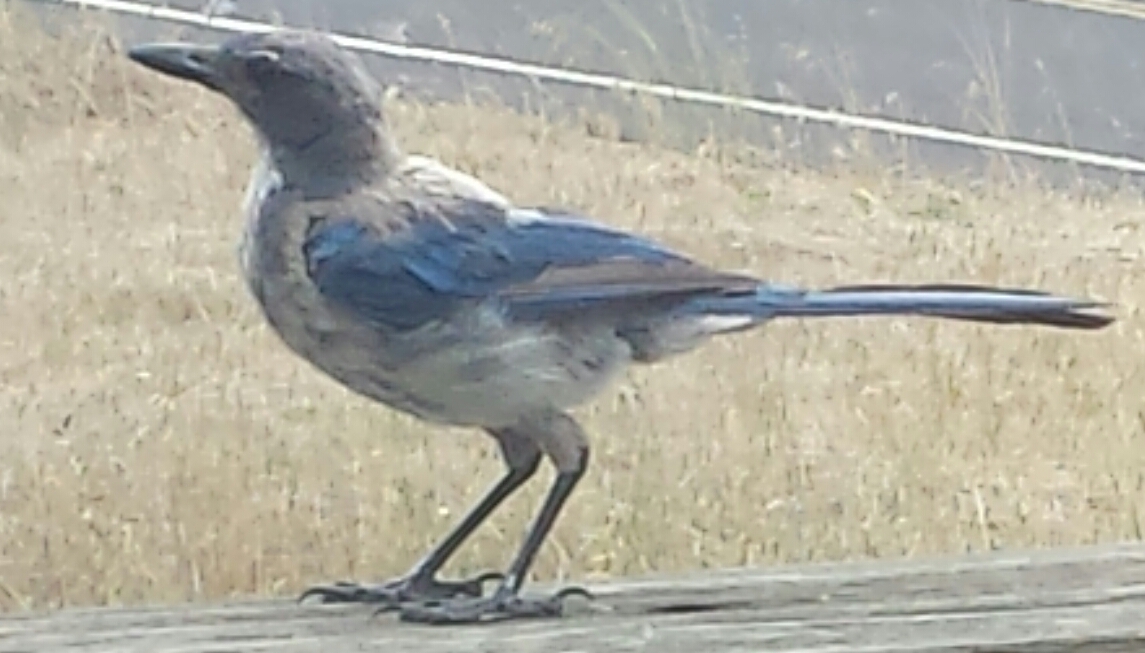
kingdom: Animalia
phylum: Chordata
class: Aves
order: Passeriformes
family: Corvidae
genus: Aphelocoma
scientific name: Aphelocoma californica
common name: California scrub-jay
